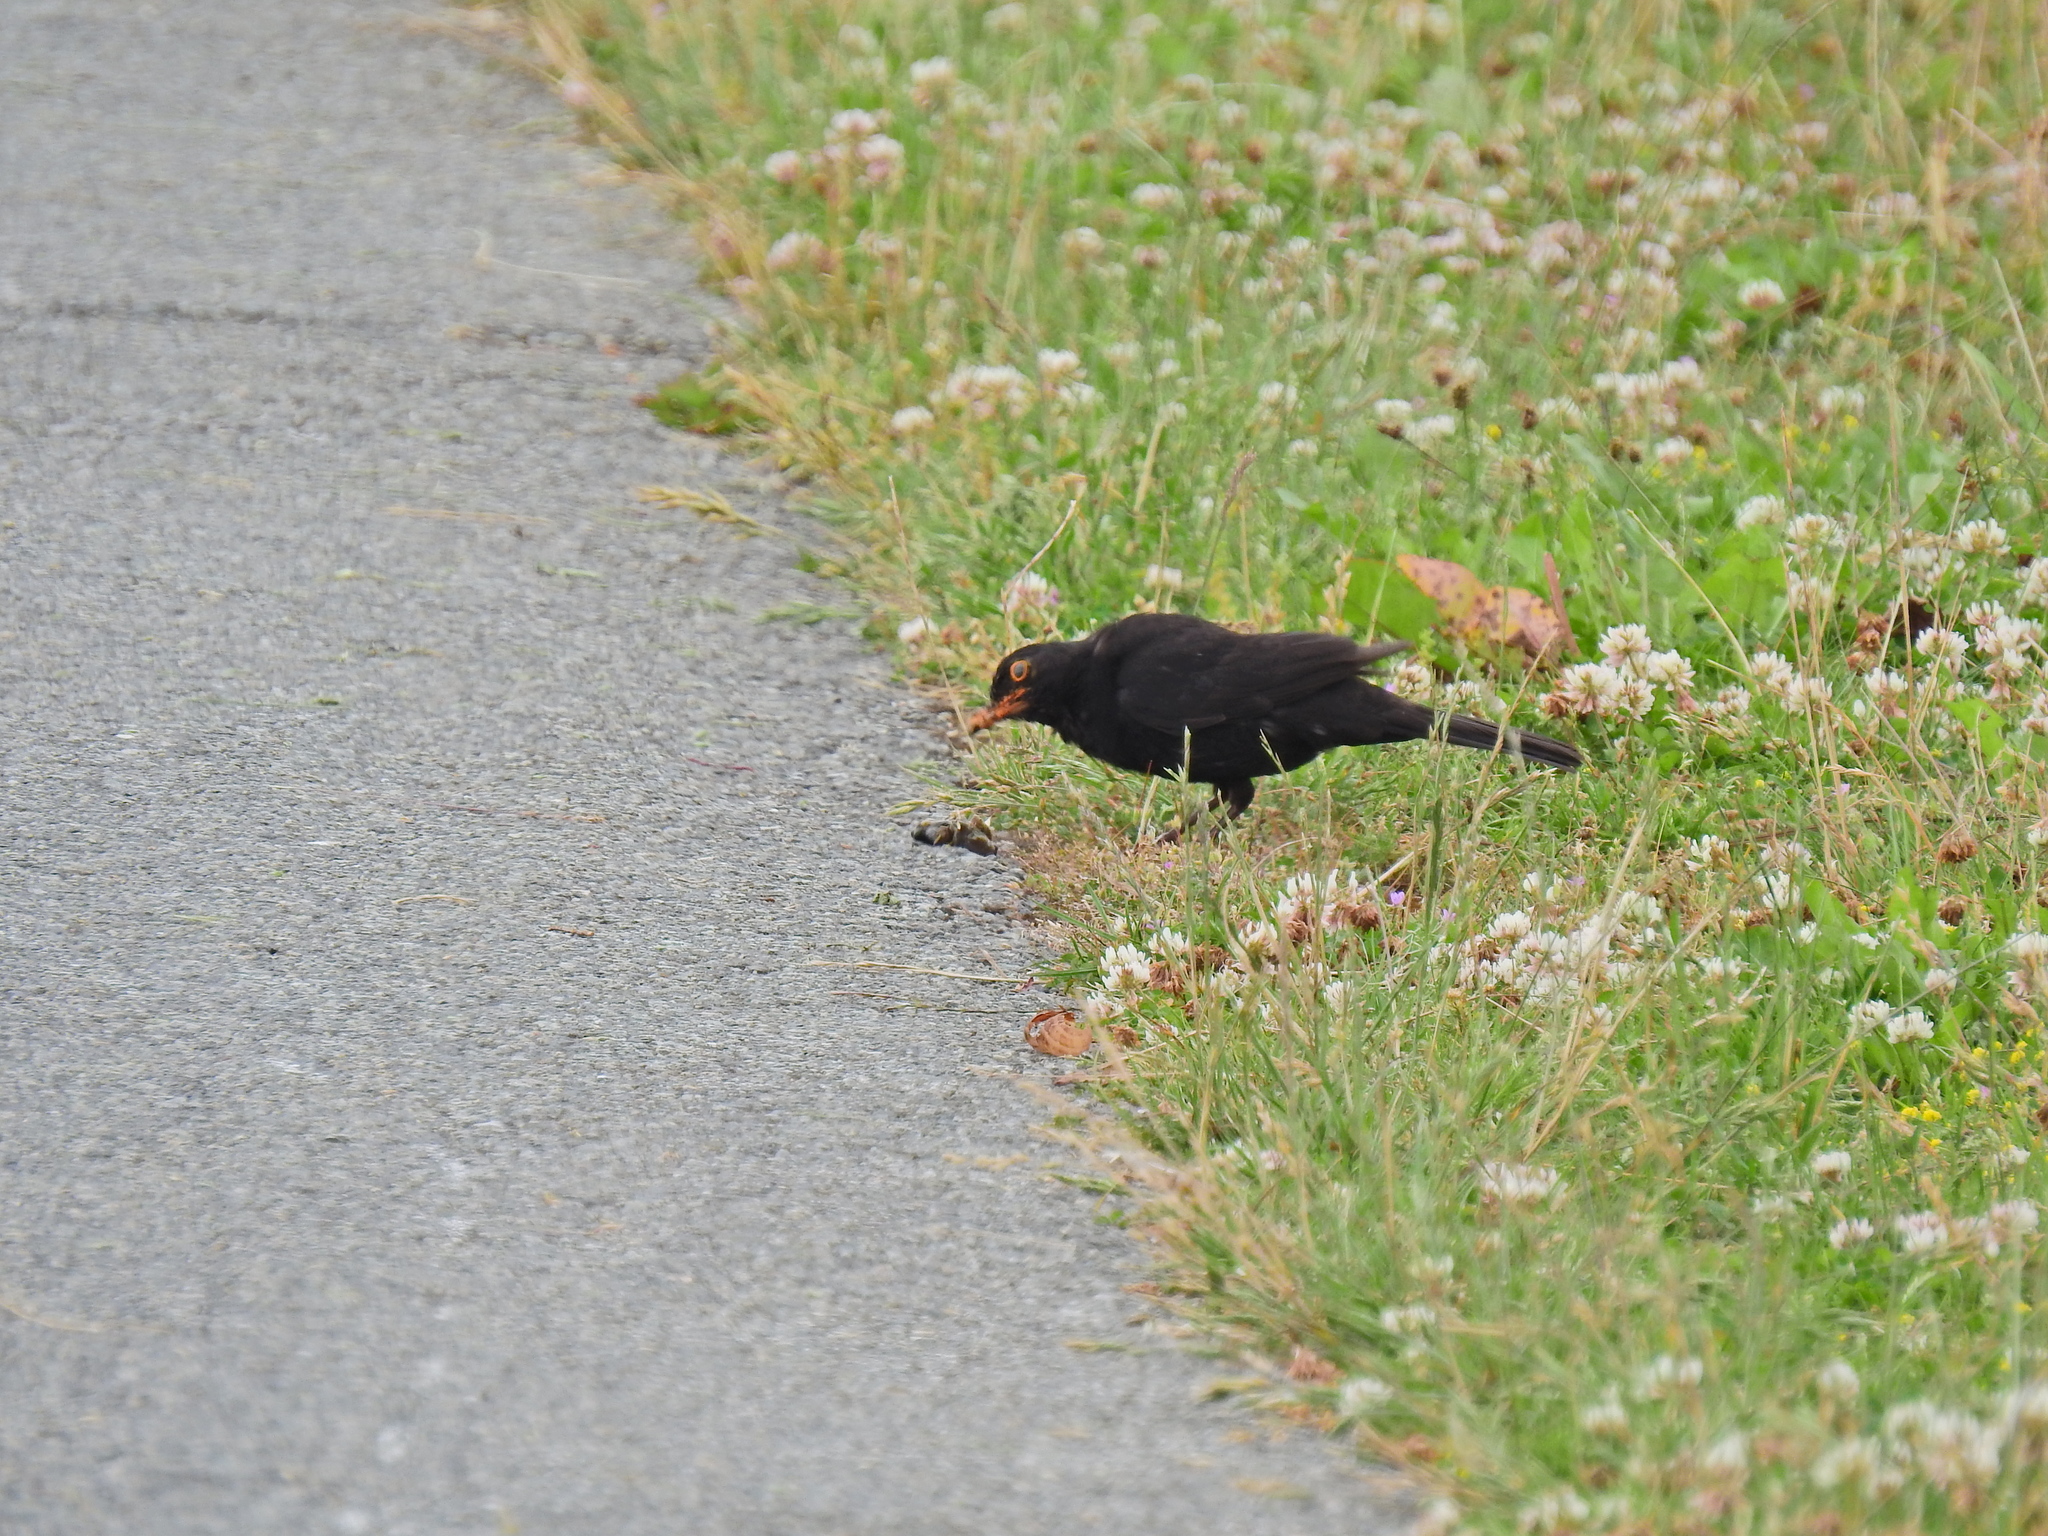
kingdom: Animalia
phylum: Chordata
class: Aves
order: Passeriformes
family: Turdidae
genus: Turdus
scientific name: Turdus merula
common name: Common blackbird
